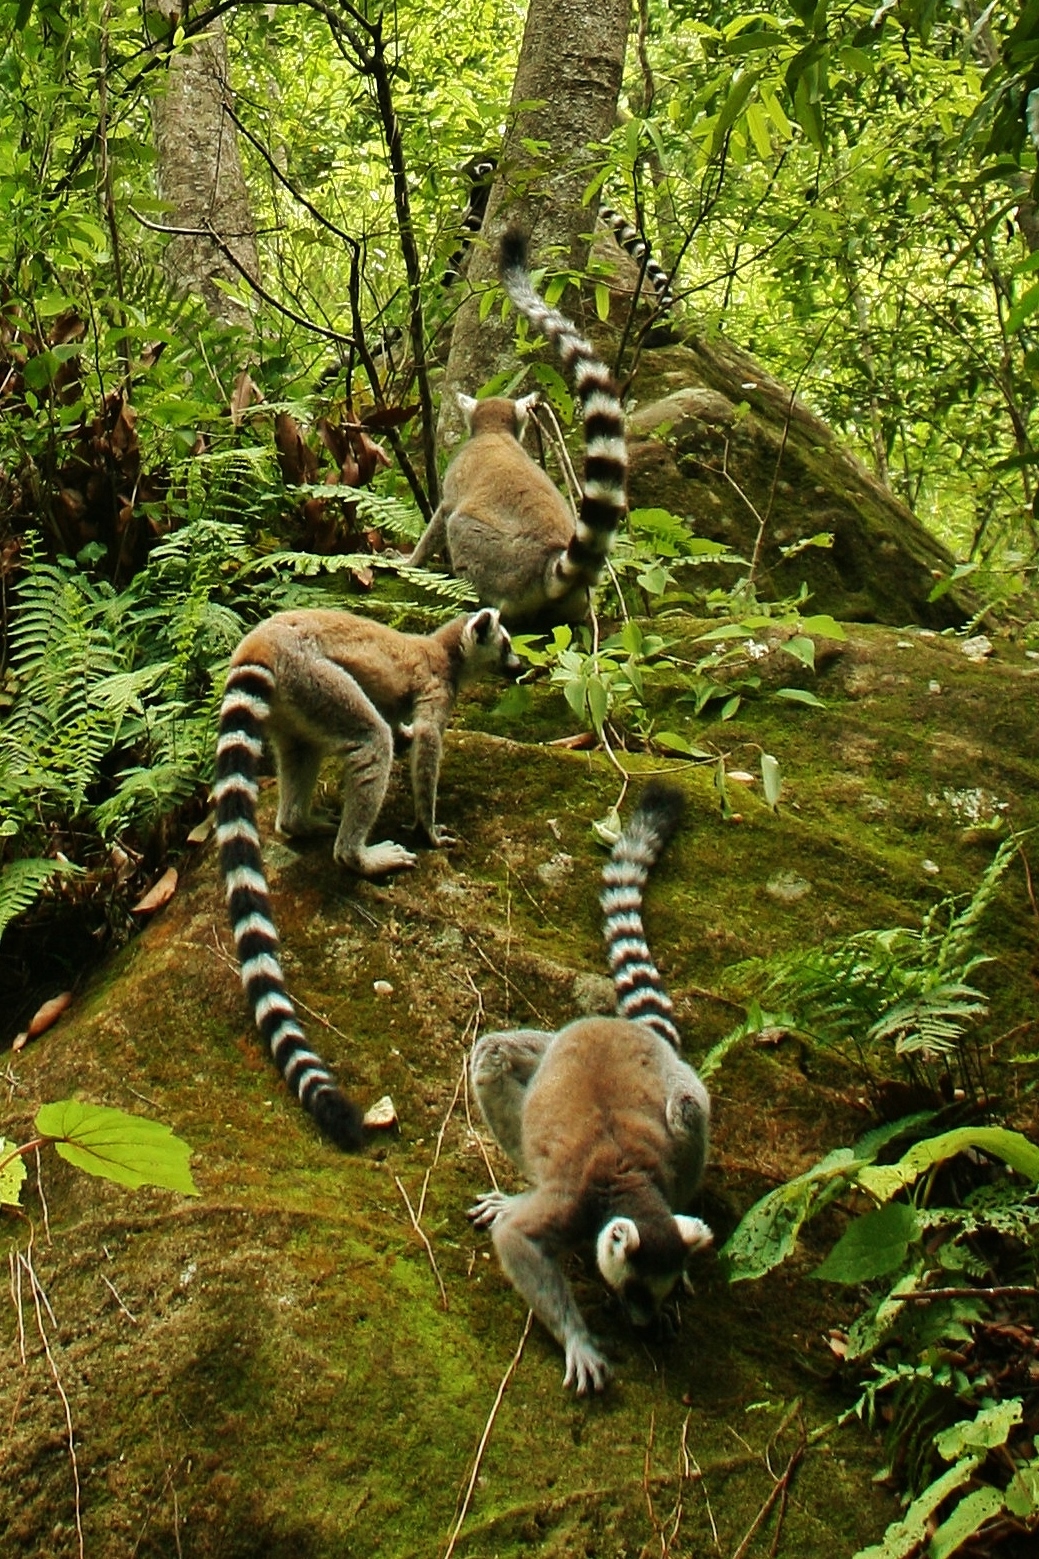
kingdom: Animalia
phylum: Chordata
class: Mammalia
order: Primates
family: Lemuridae
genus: Lemur
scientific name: Lemur catta
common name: Ring-tailed lemur
